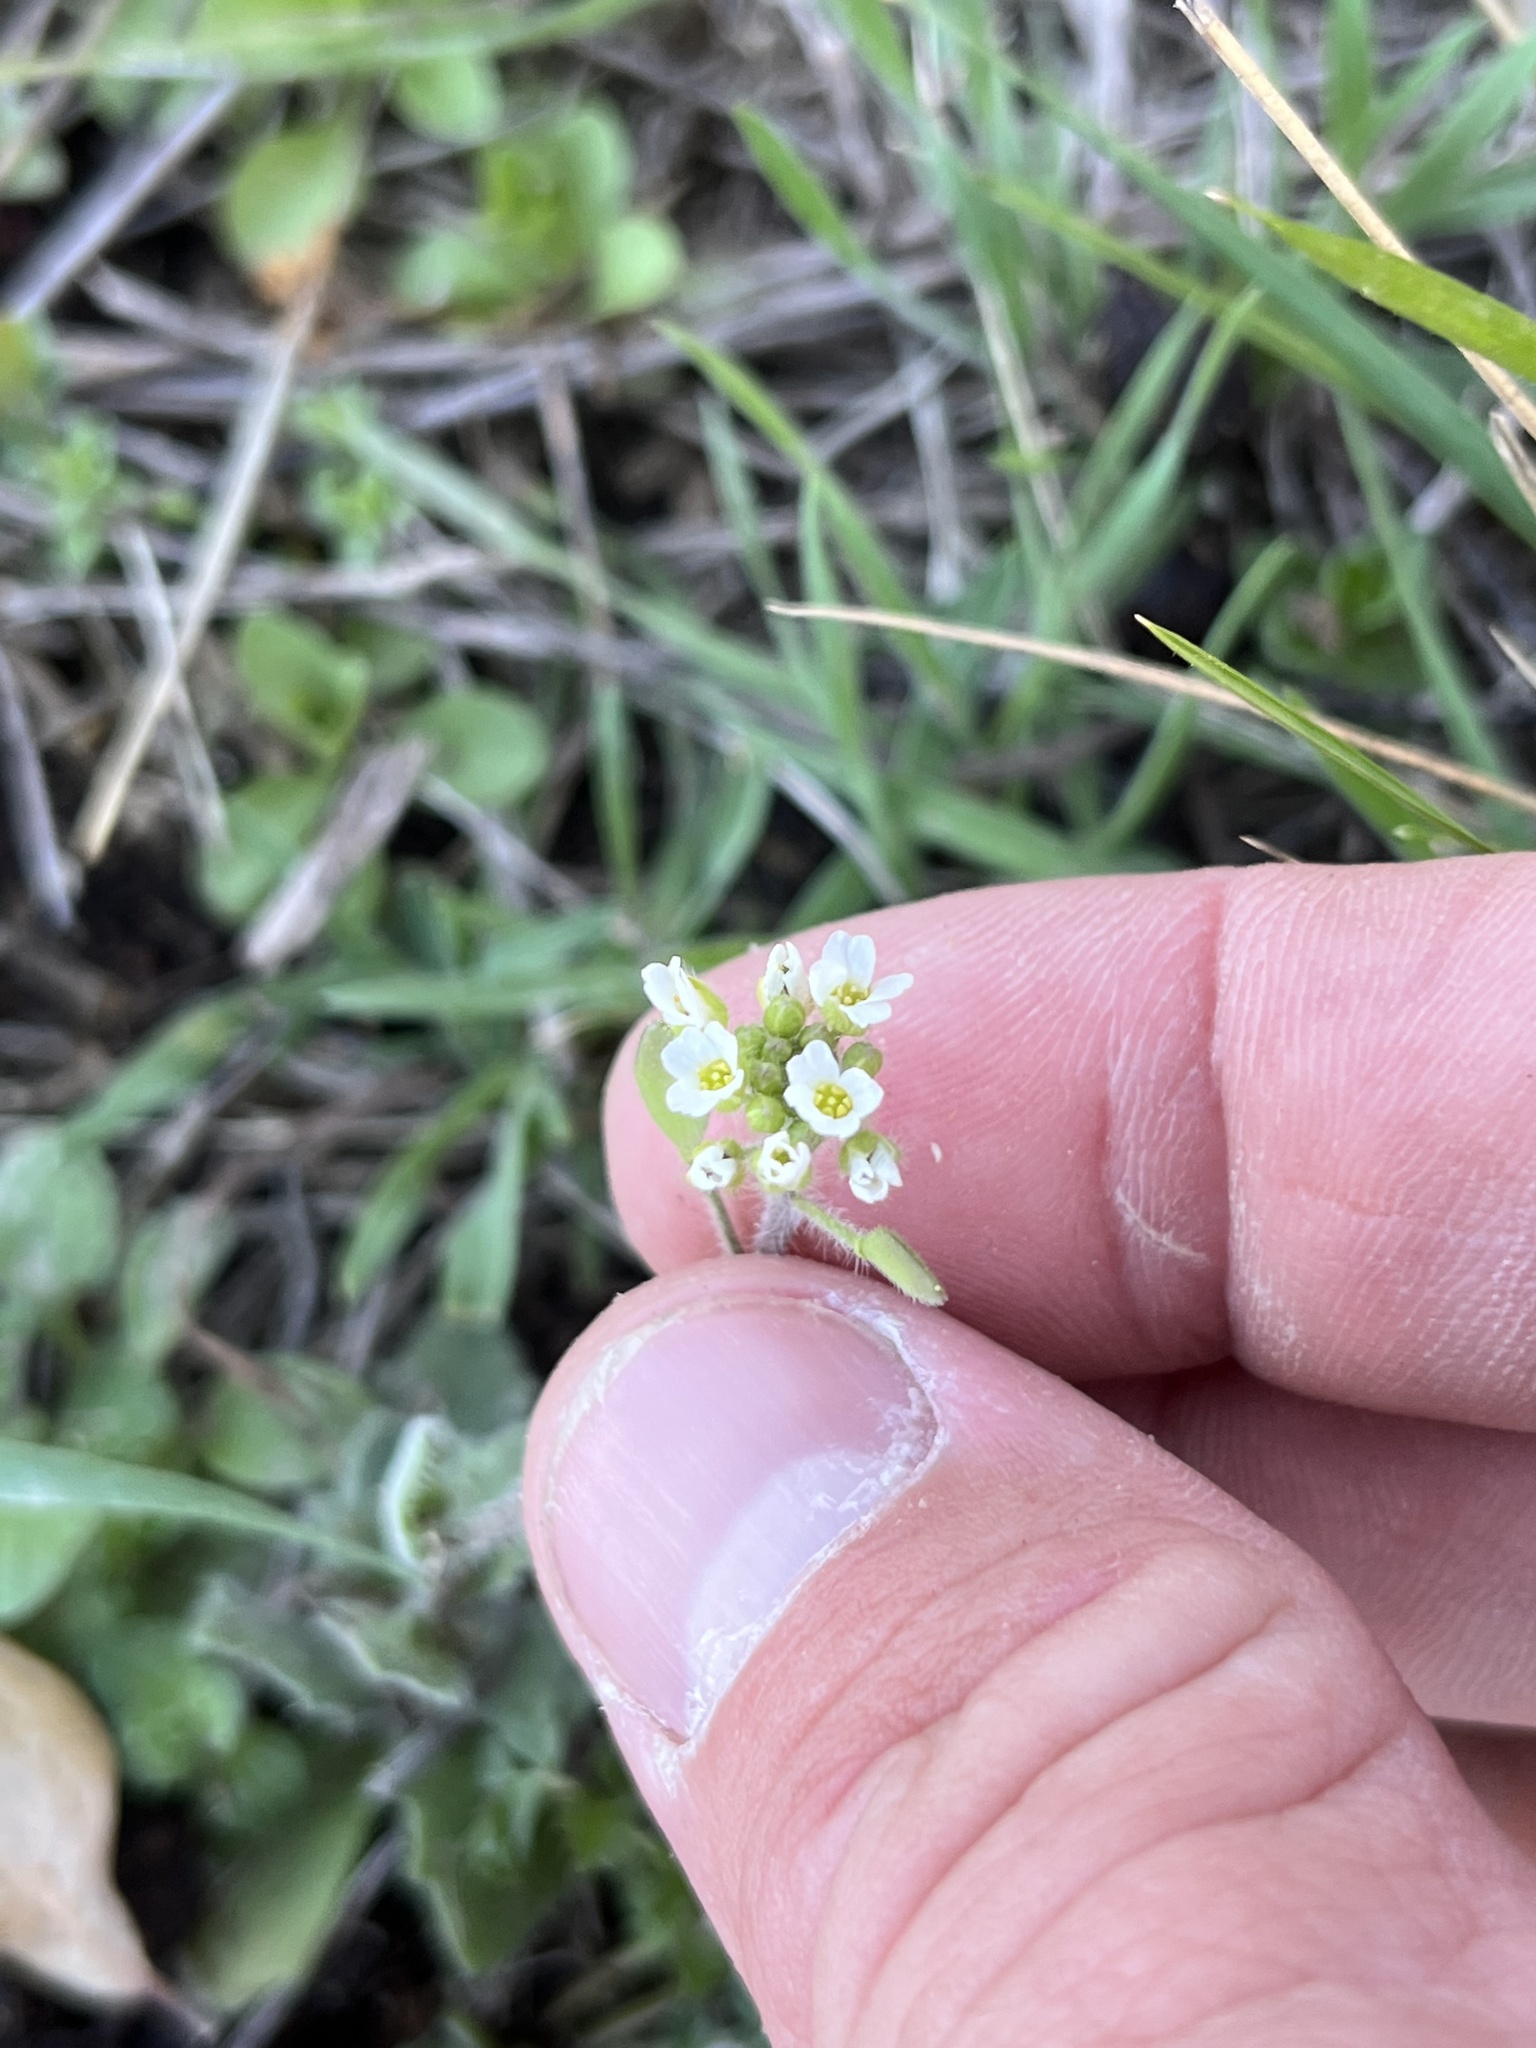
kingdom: Plantae
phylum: Tracheophyta
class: Magnoliopsida
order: Brassicales
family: Brassicaceae
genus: Tomostima
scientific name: Tomostima platycarpa
